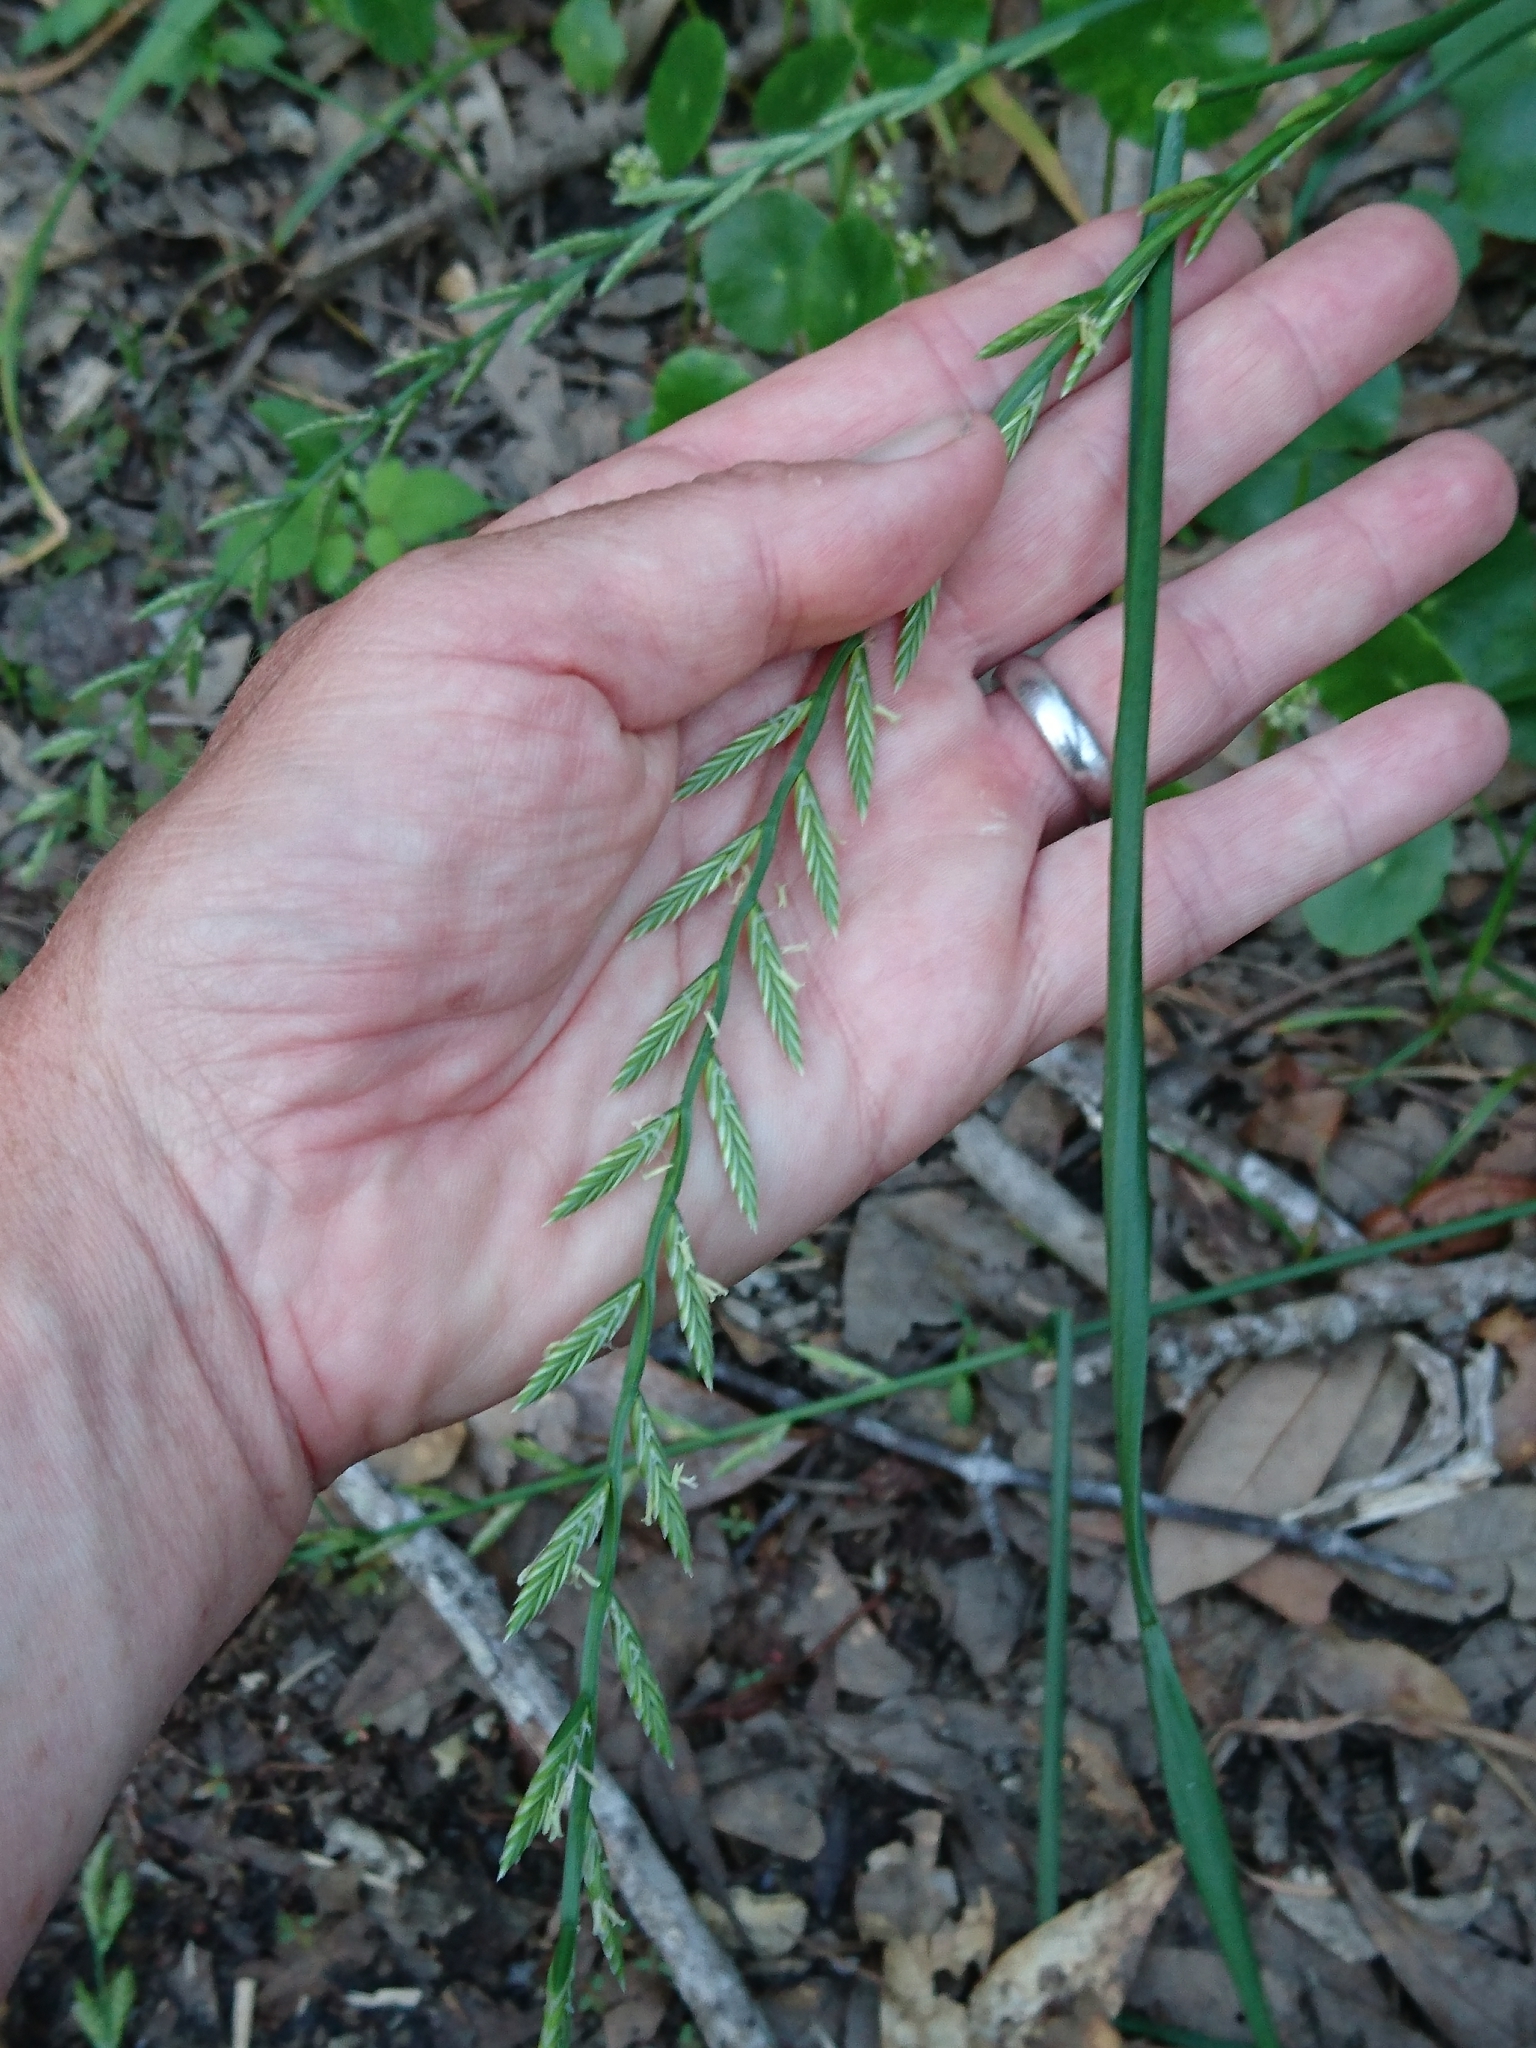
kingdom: Plantae
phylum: Tracheophyta
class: Liliopsida
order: Poales
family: Poaceae
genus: Lolium
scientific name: Lolium perenne
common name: Perennial ryegrass
